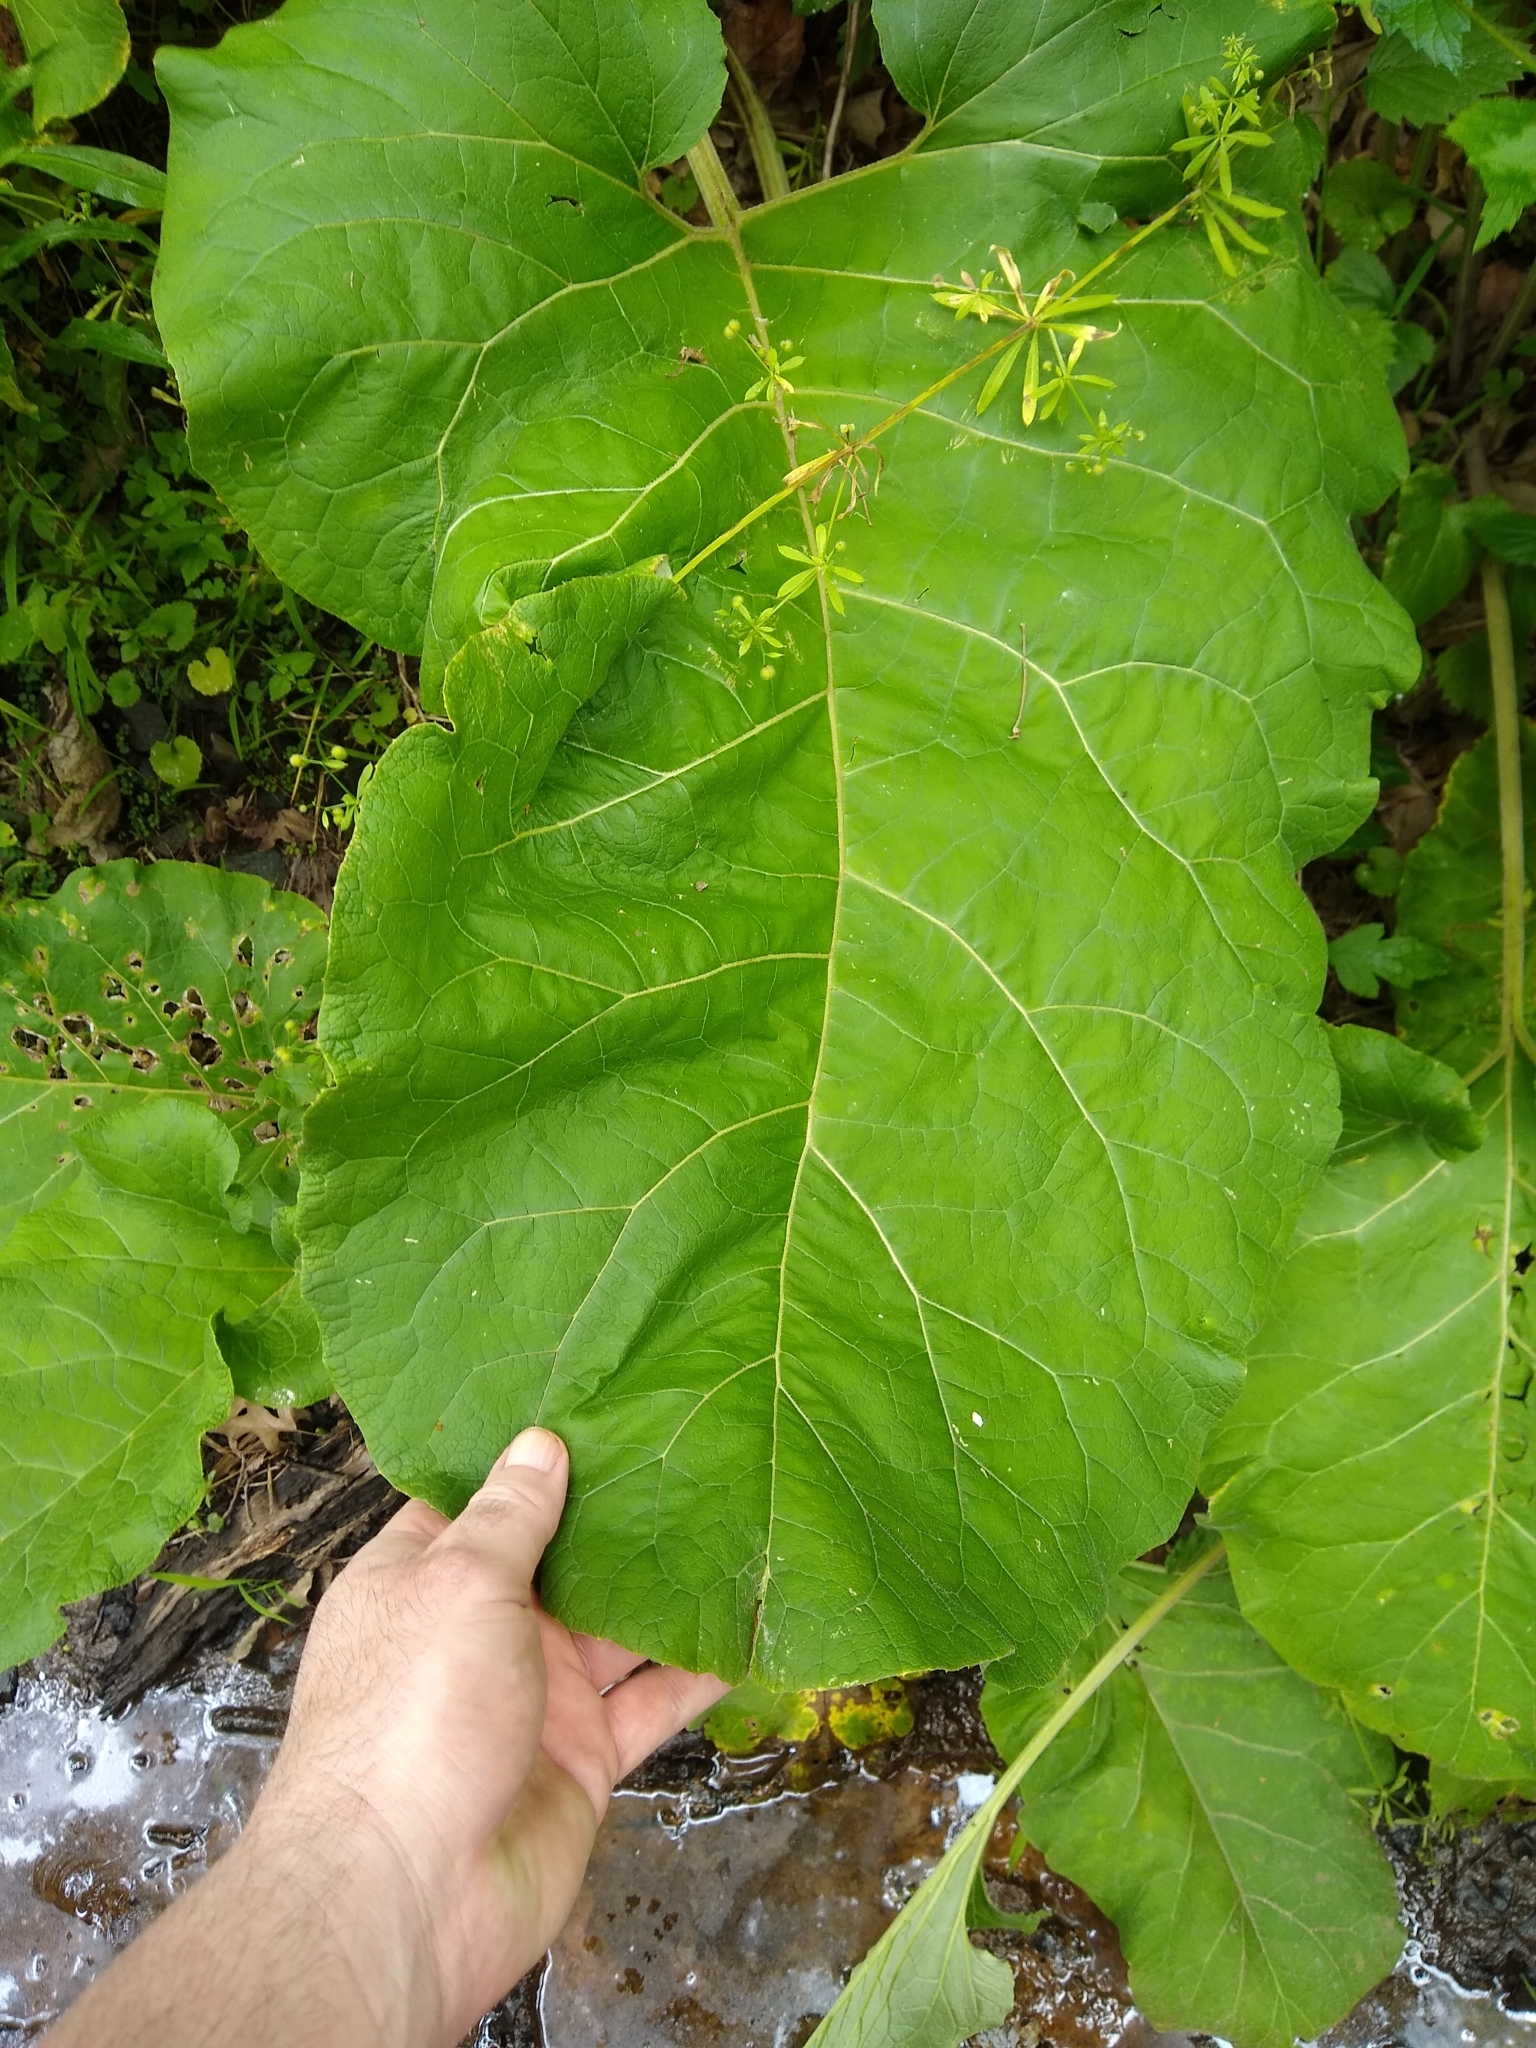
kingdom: Plantae
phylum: Tracheophyta
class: Magnoliopsida
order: Asterales
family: Asteraceae
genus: Arctium
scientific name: Arctium
